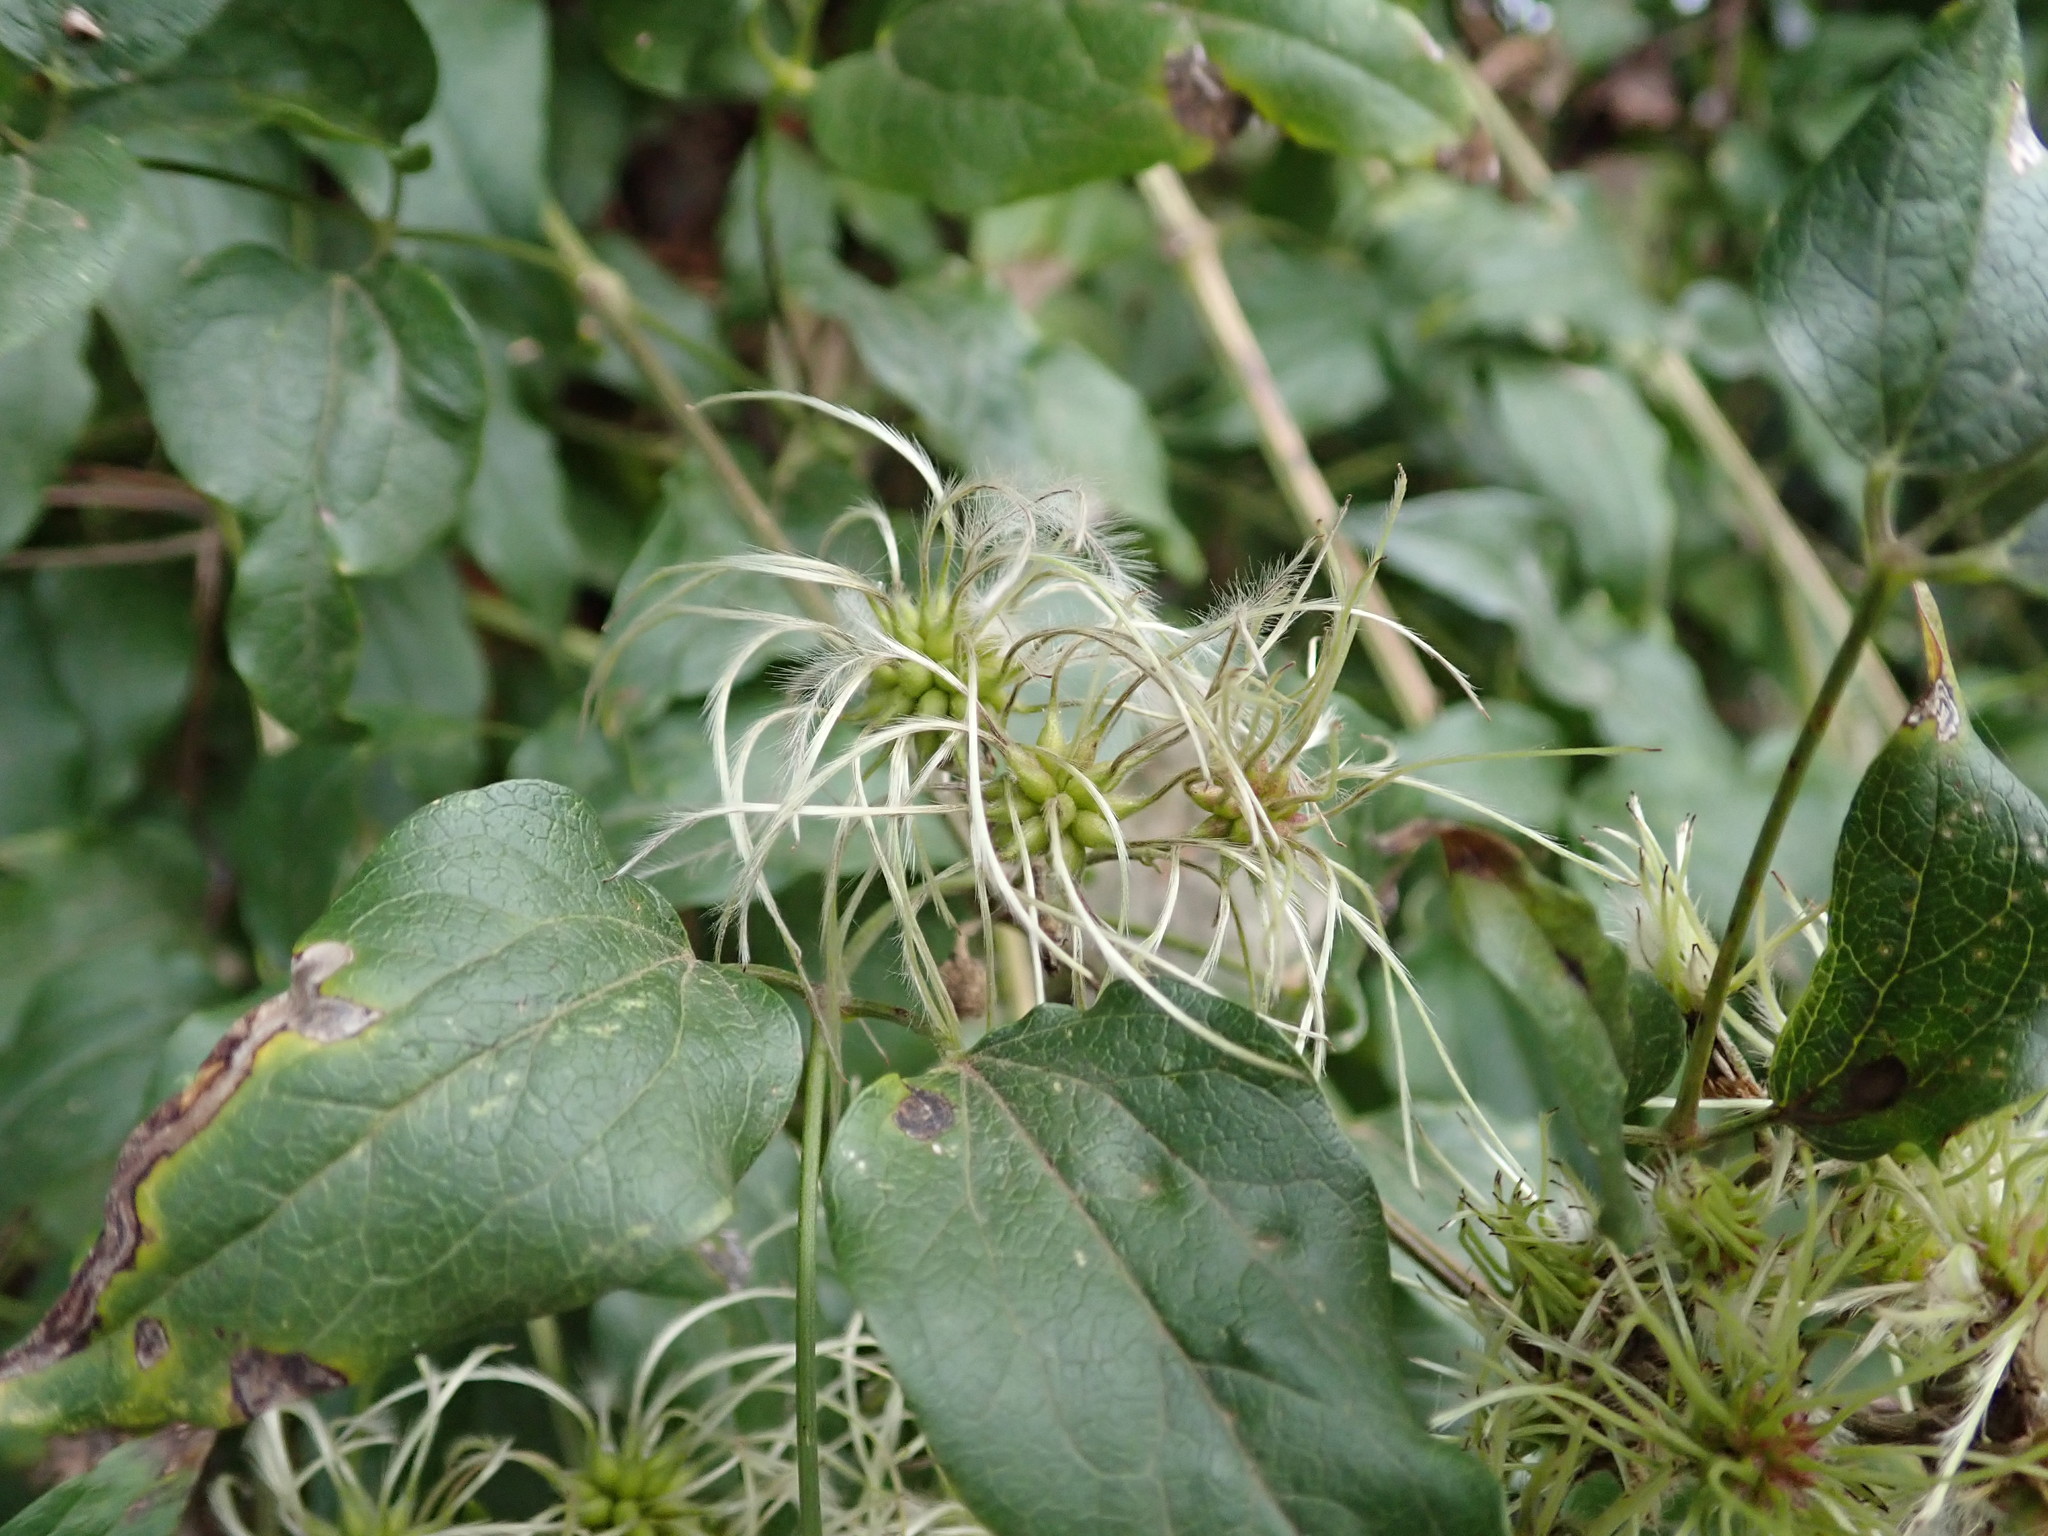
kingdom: Plantae
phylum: Tracheophyta
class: Magnoliopsida
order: Ranunculales
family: Ranunculaceae
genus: Clematis
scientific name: Clematis vitalba
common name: Evergreen clematis
